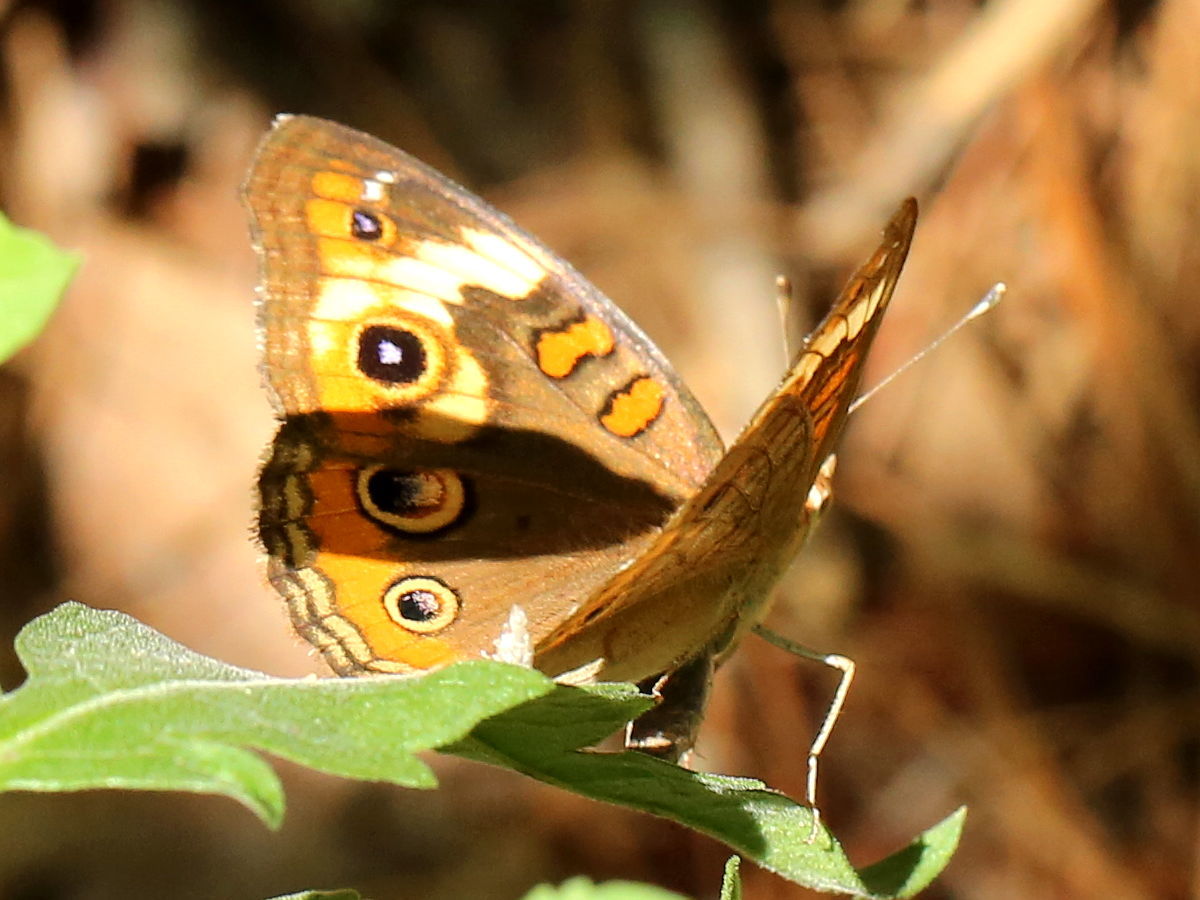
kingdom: Animalia
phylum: Arthropoda
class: Insecta
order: Lepidoptera
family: Nymphalidae
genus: Junonia
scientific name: Junonia coenia
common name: Common buckeye
